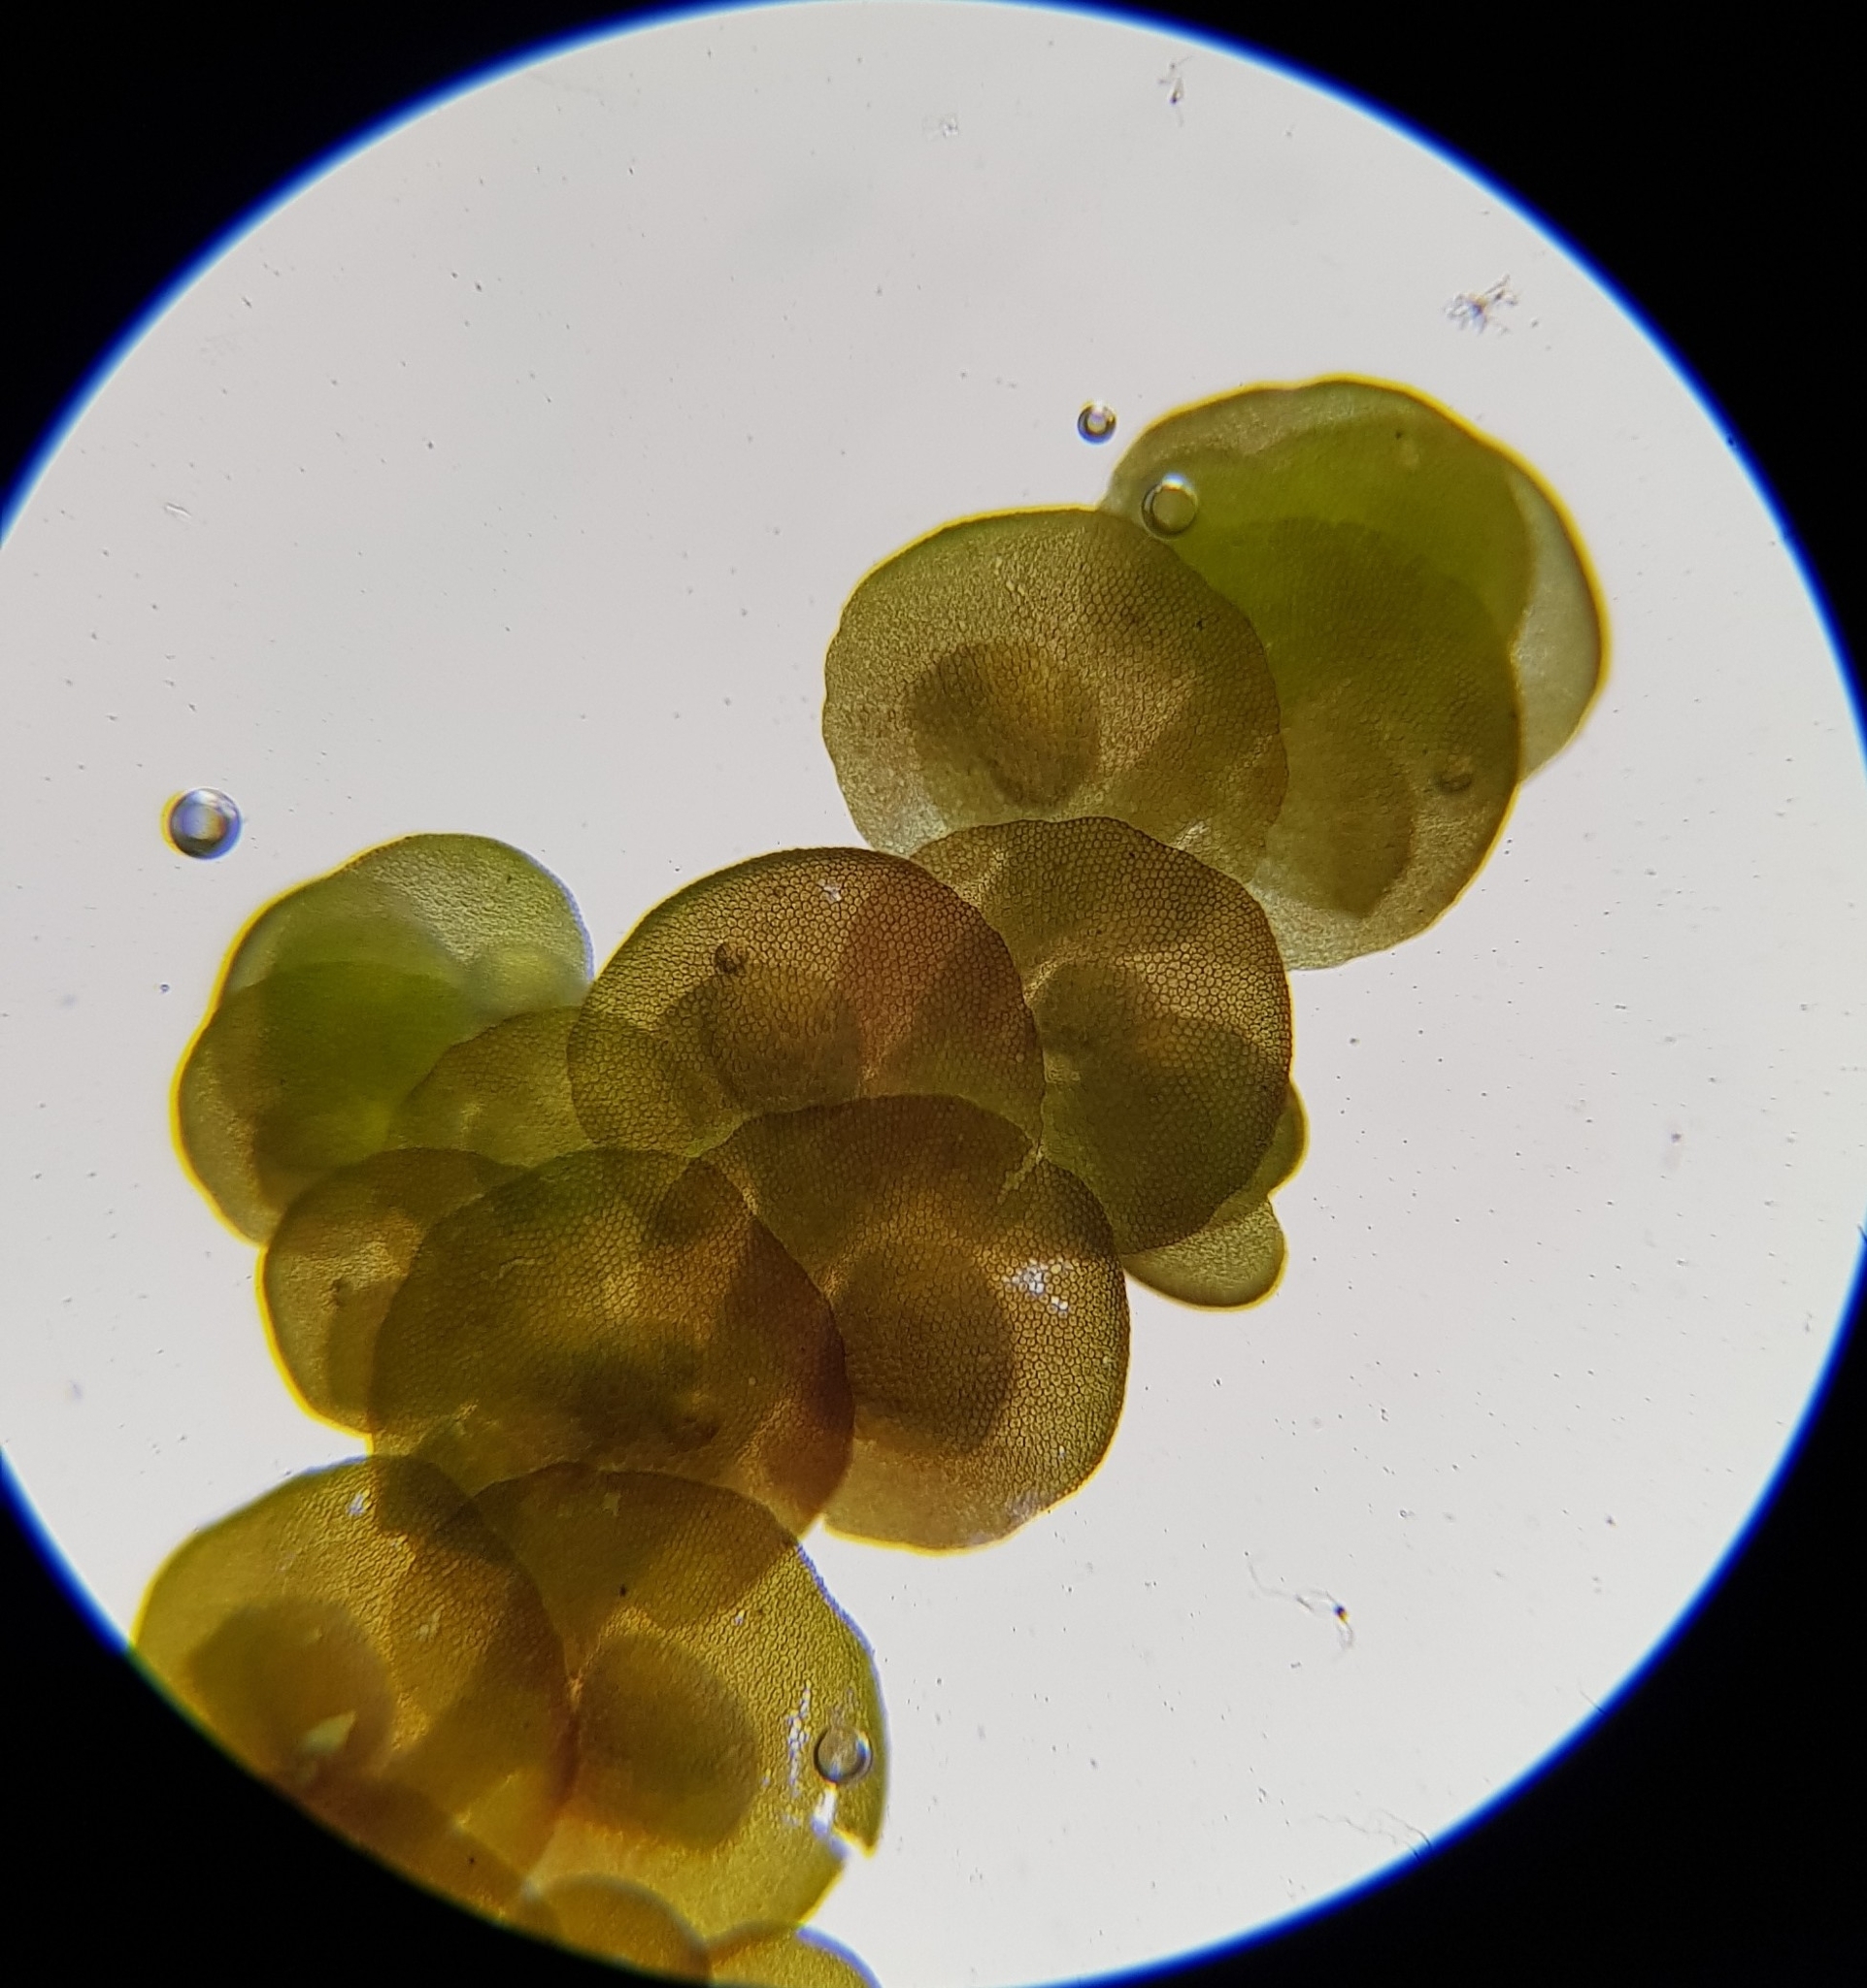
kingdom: Plantae
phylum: Marchantiophyta
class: Jungermanniopsida
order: Porellales
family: Frullaniaceae
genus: Frullania
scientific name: Frullania dilatata
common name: Dilated scalewort
